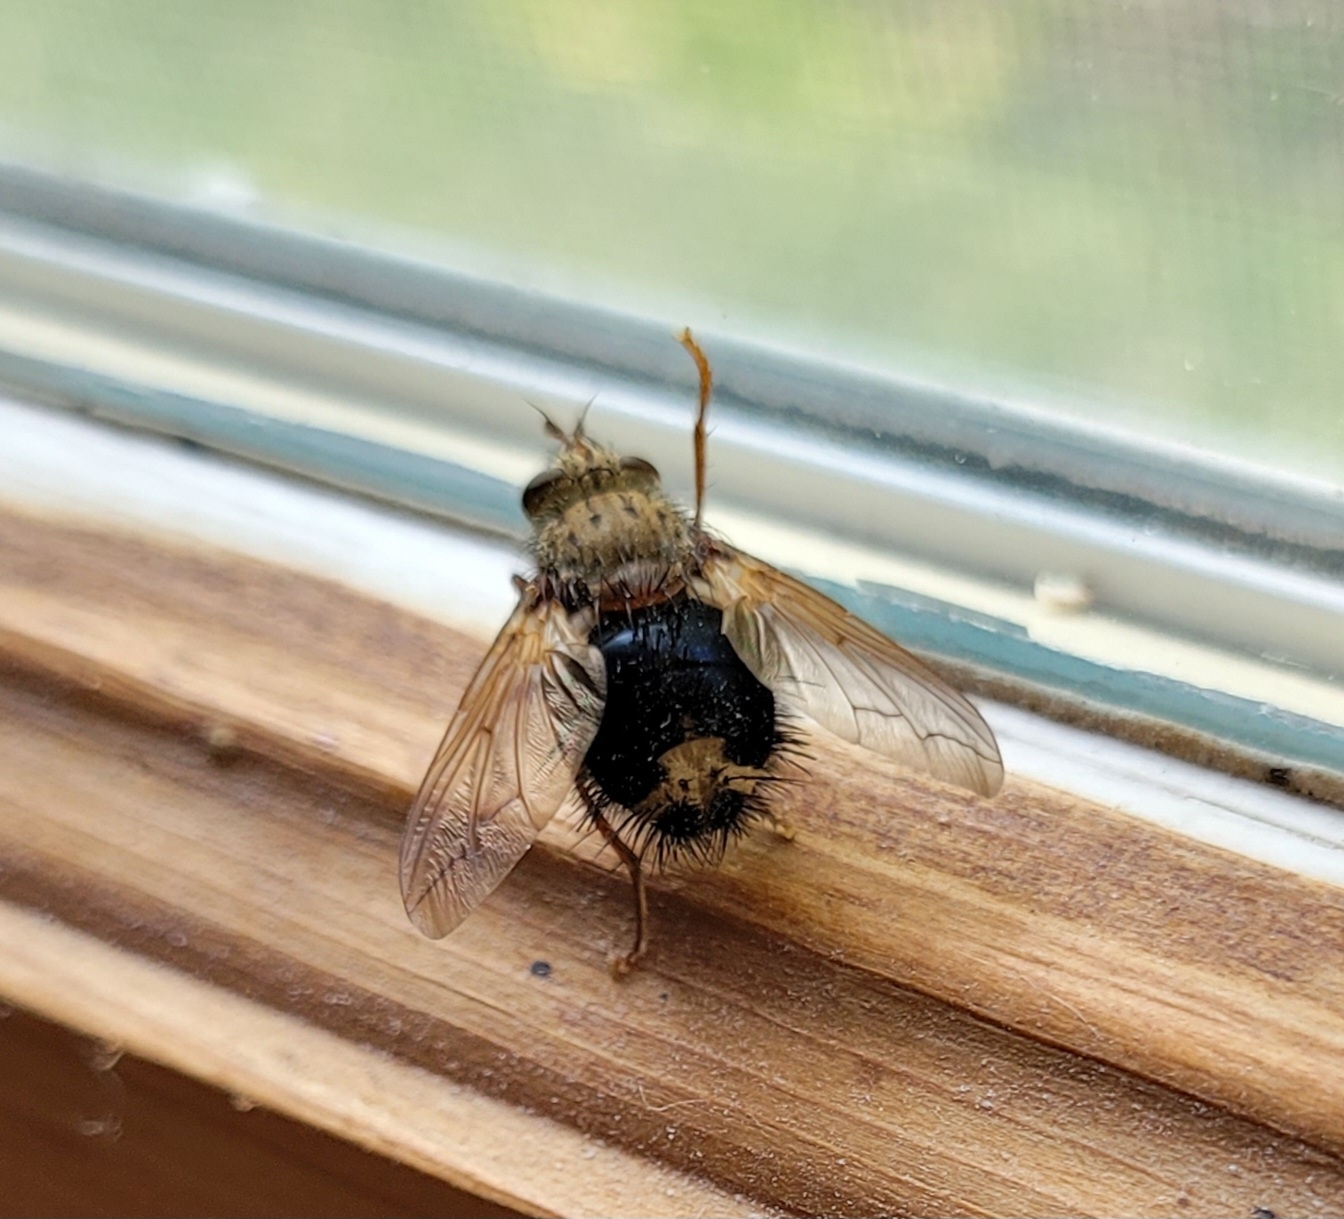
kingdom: Animalia
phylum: Arthropoda
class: Insecta
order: Diptera
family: Tachinidae
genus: Epalpus
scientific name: Epalpus signifer
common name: Early tachinid fly
